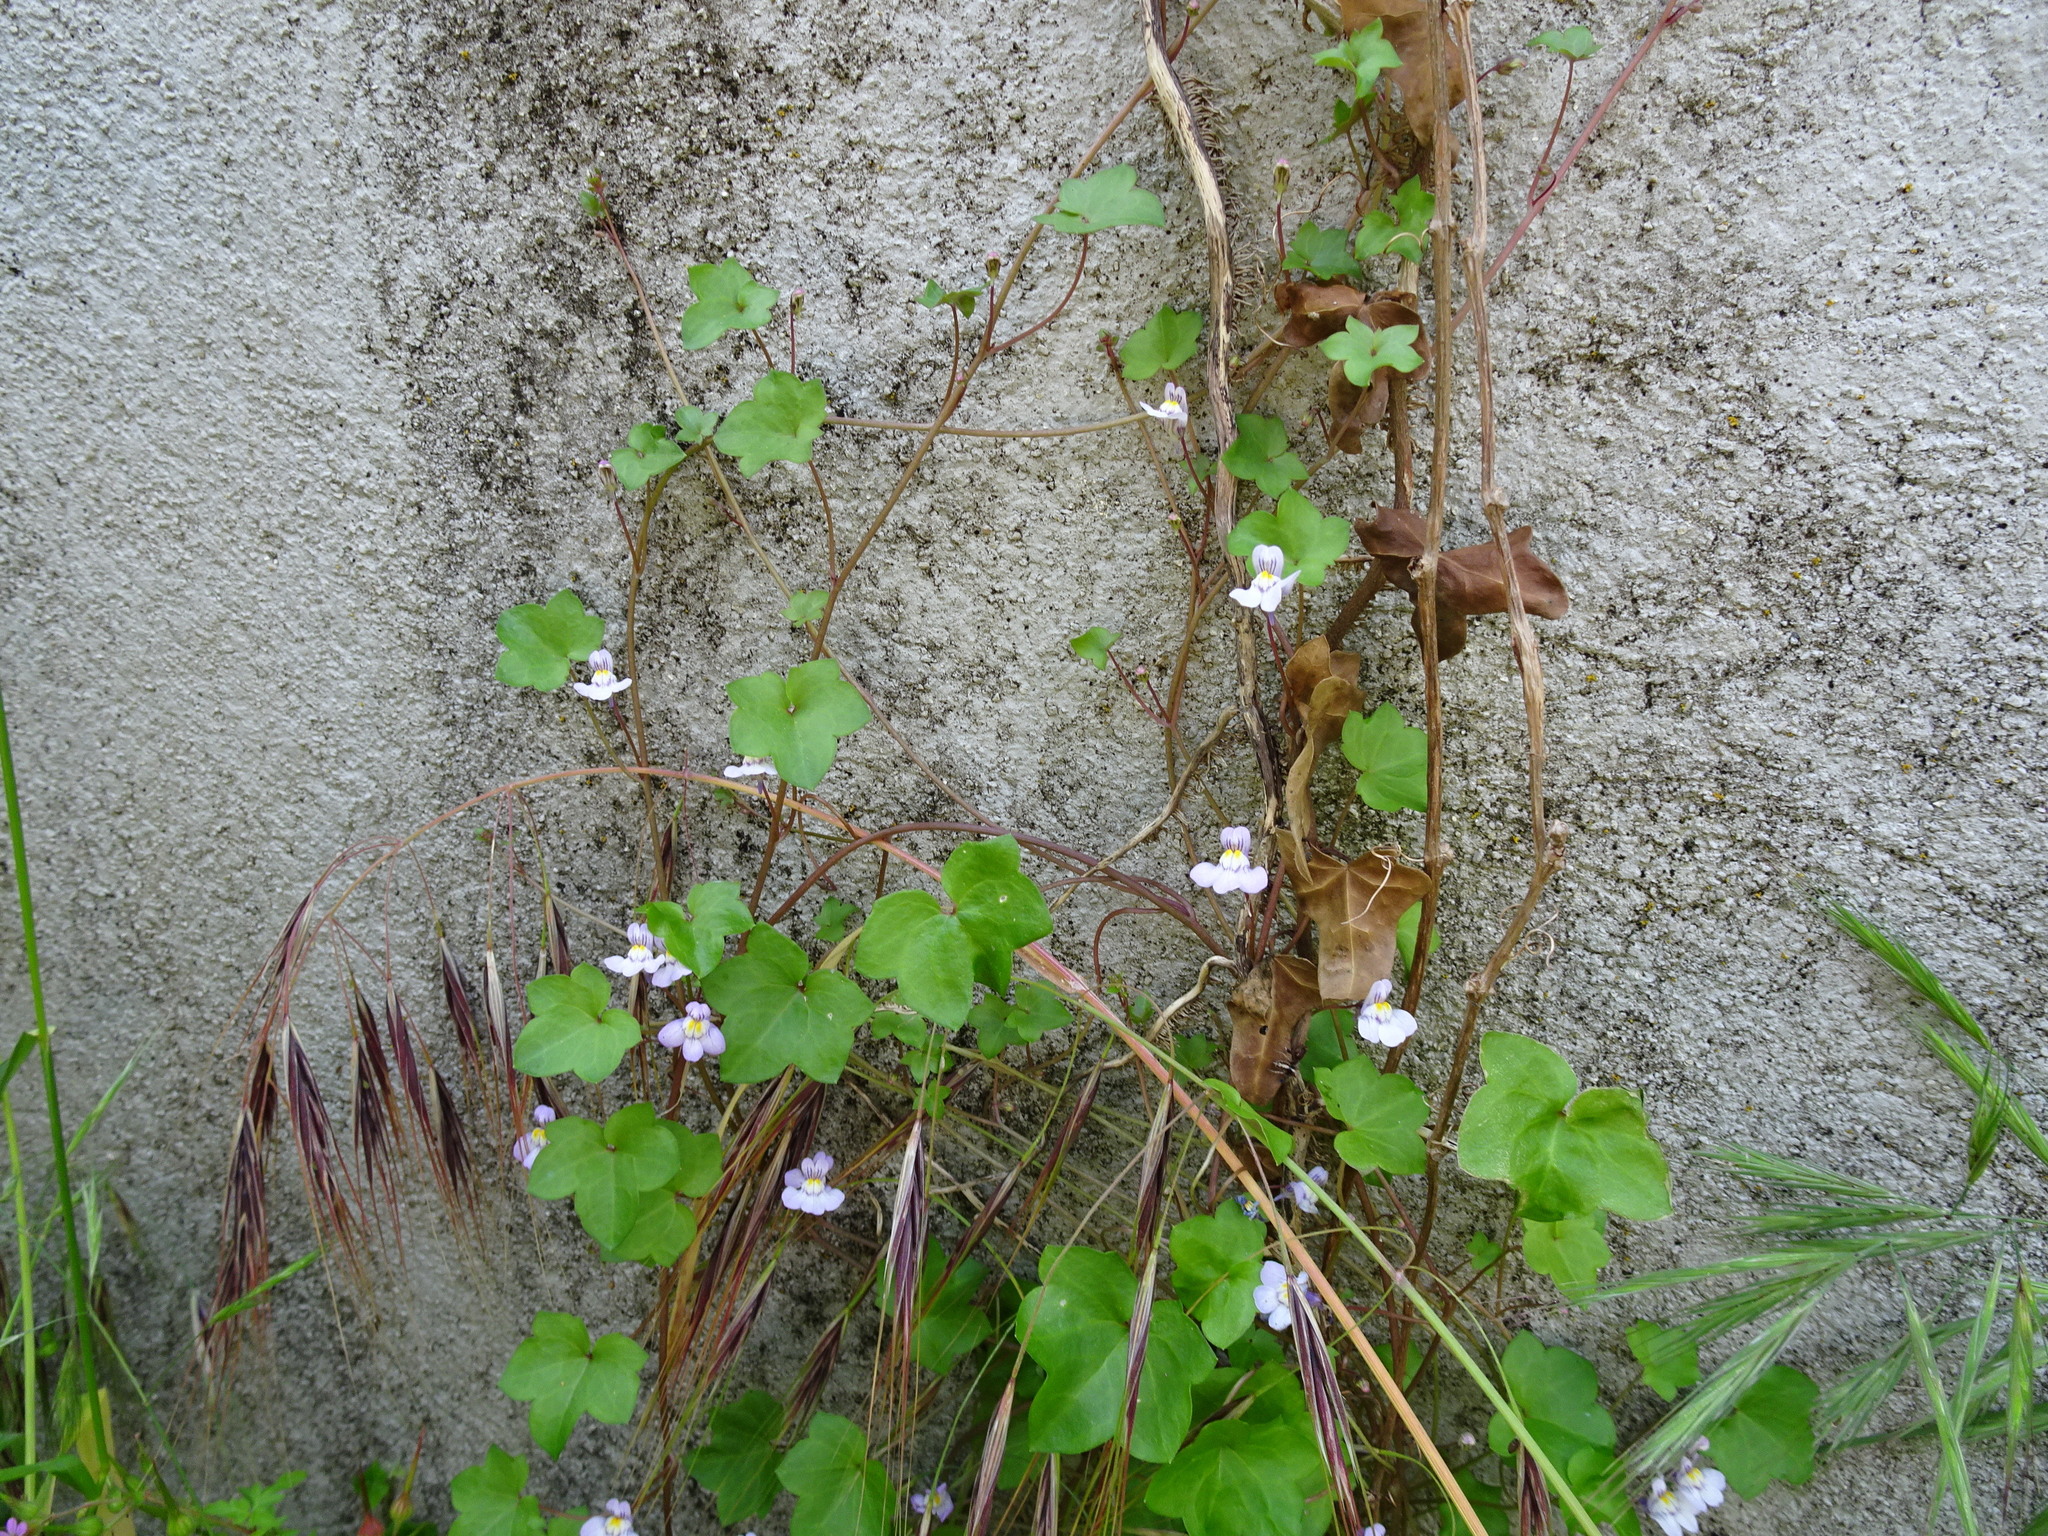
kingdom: Plantae
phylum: Tracheophyta
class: Magnoliopsida
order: Lamiales
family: Plantaginaceae
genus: Cymbalaria
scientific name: Cymbalaria muralis
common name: Ivy-leaved toadflax
